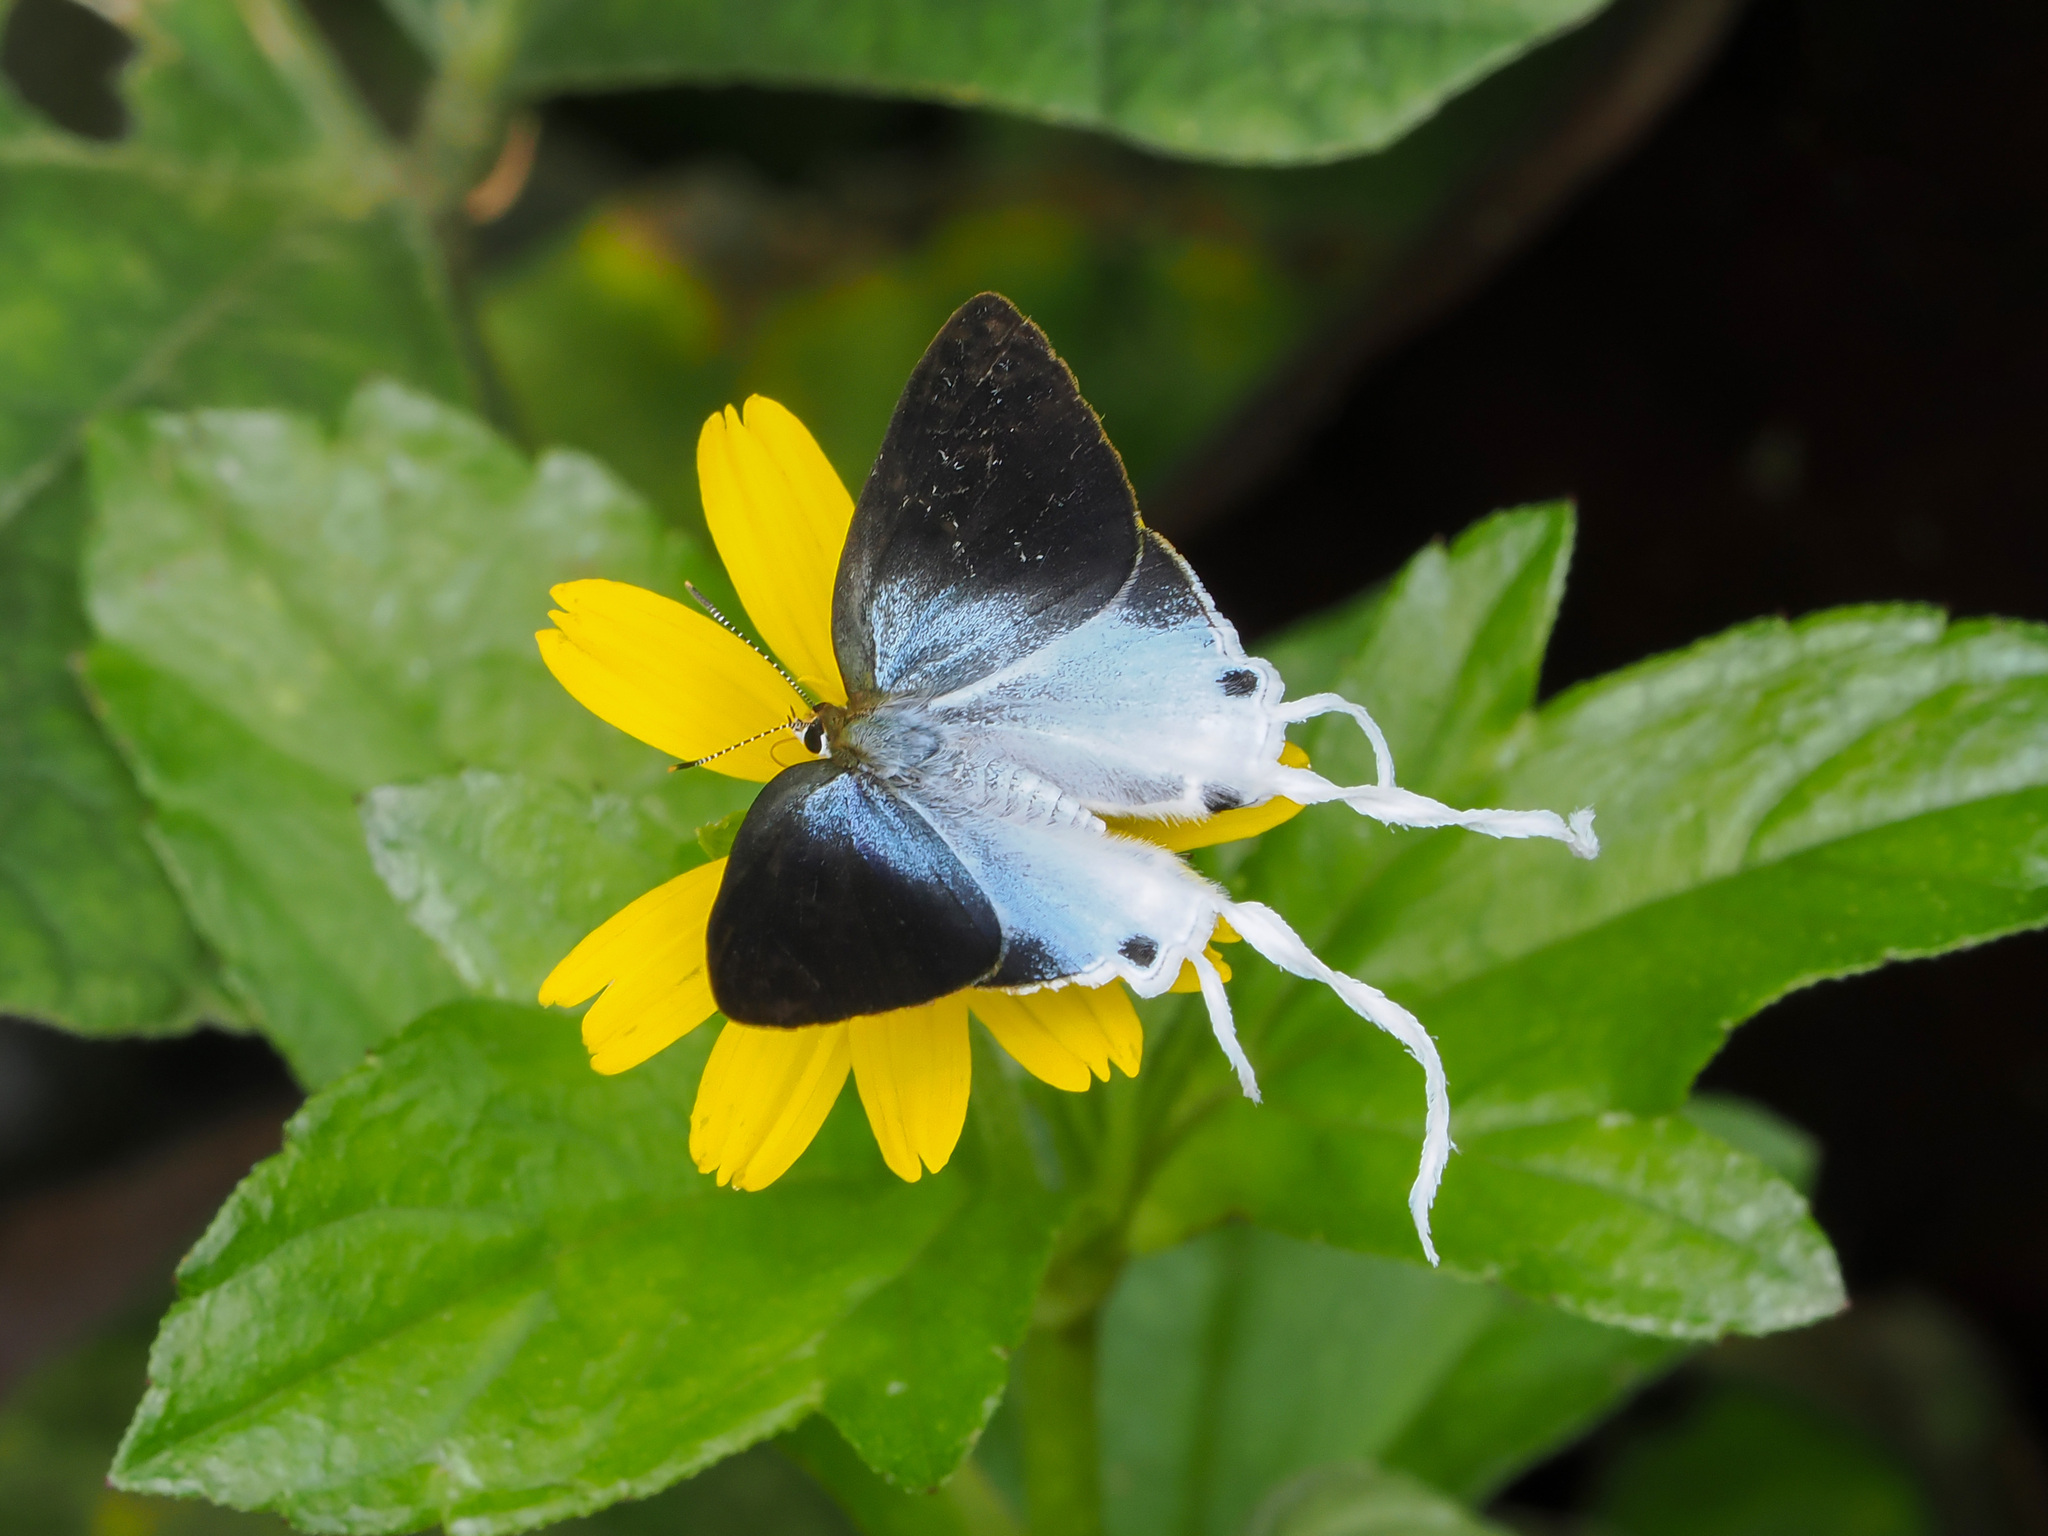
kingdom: Animalia
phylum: Arthropoda
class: Insecta
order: Lepidoptera
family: Lycaenidae
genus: Zeltus
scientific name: Zeltus amasa
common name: Fluffy tit
